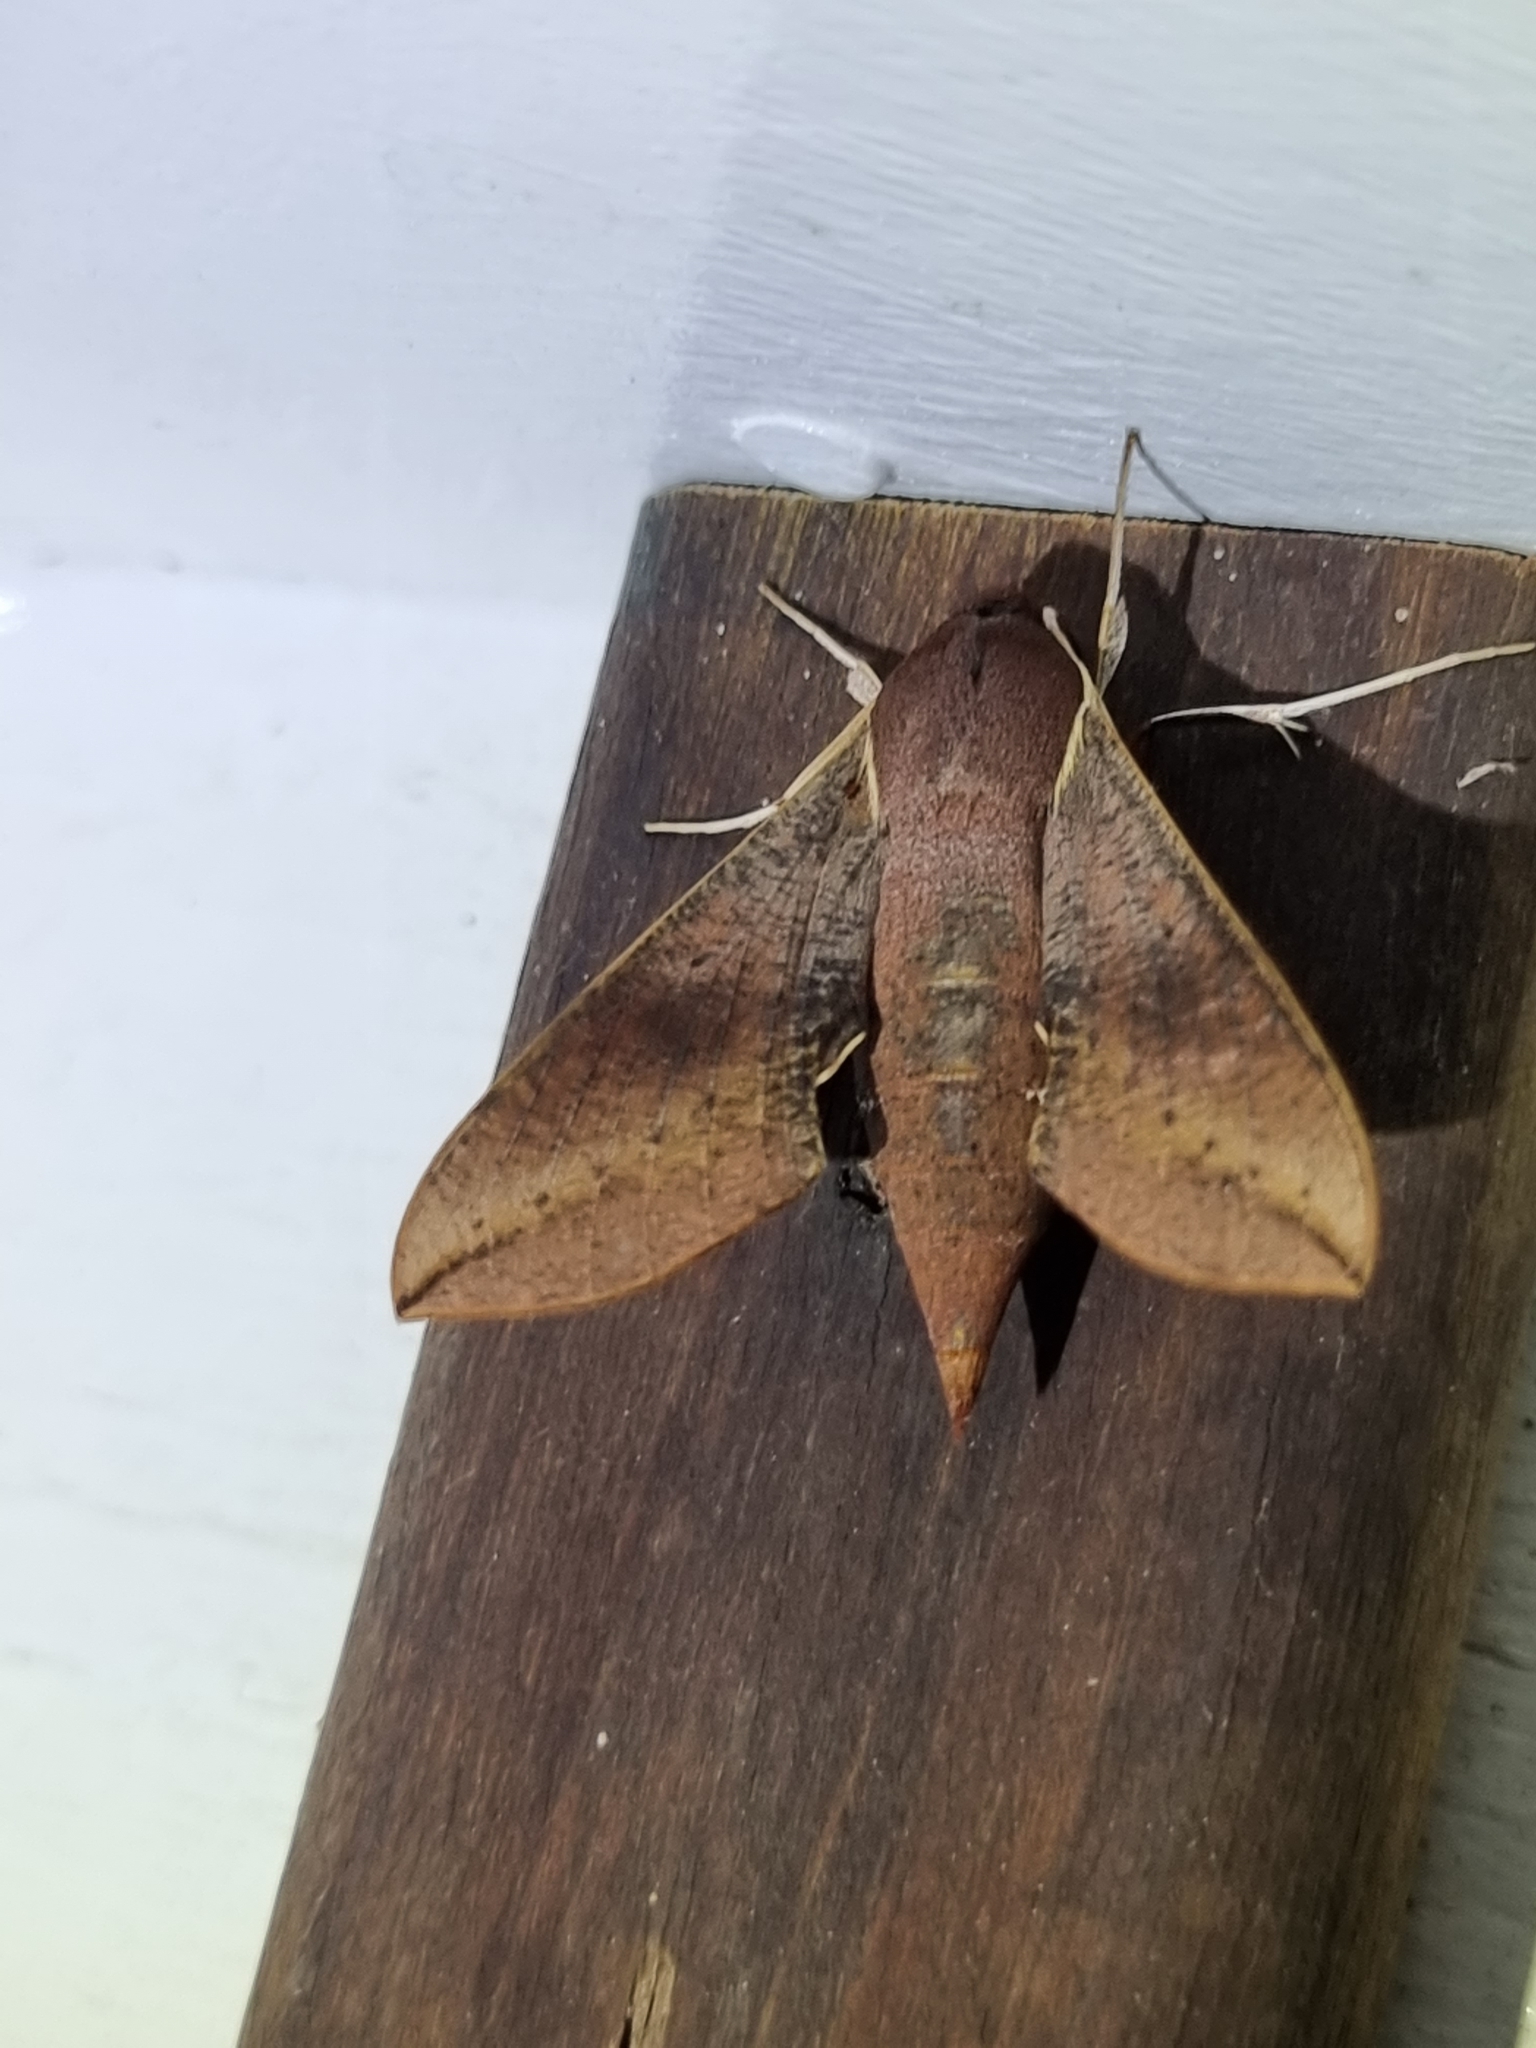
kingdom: Animalia
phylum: Arthropoda
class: Insecta
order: Lepidoptera
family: Sphingidae
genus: Hippotion
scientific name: Hippotion scrofa
